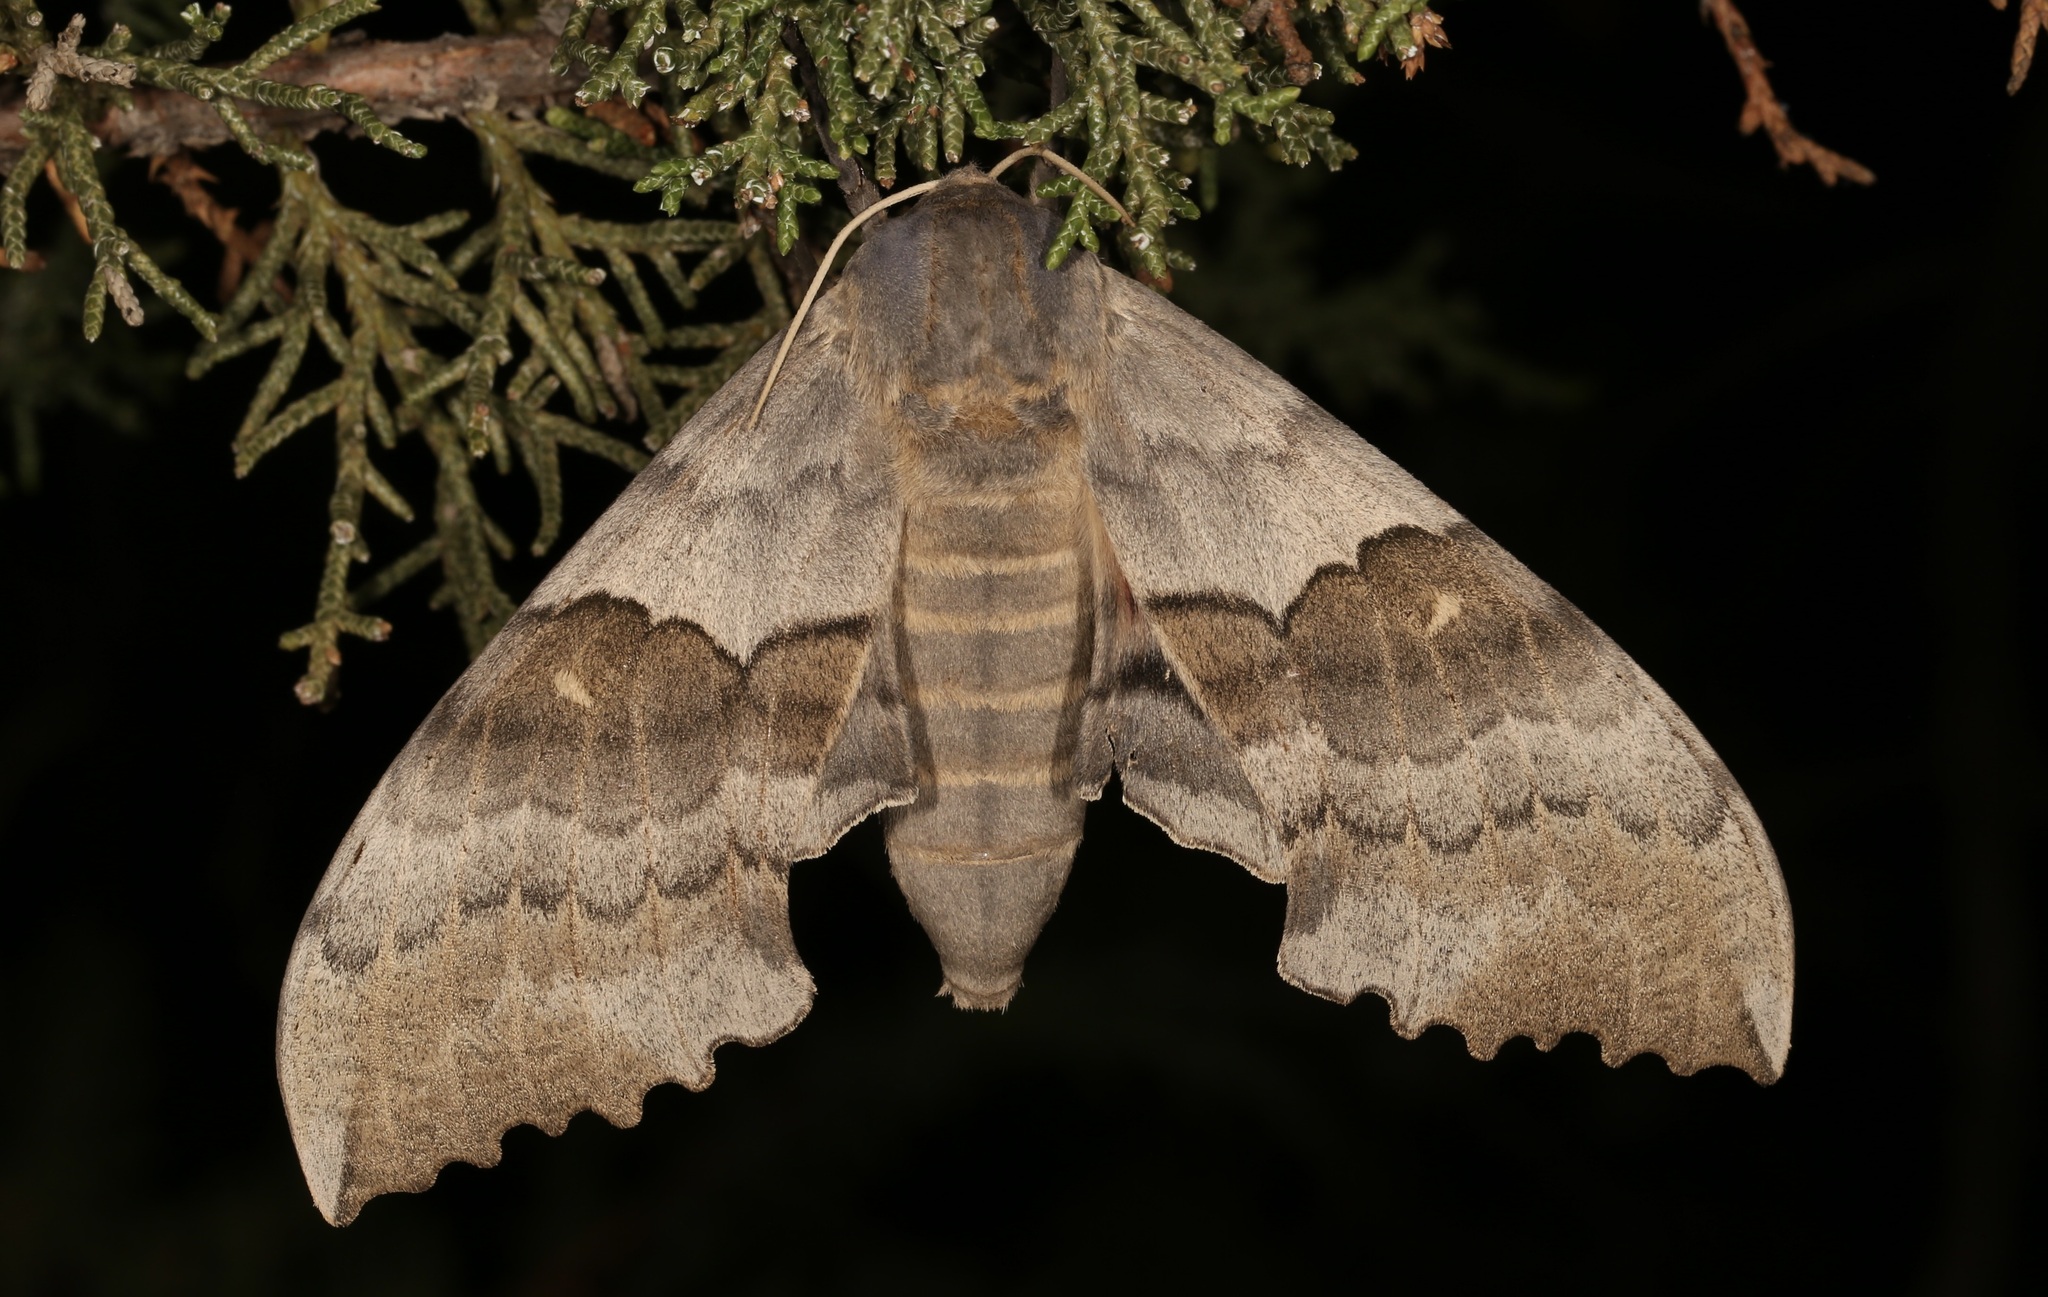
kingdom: Animalia
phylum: Arthropoda
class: Insecta
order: Lepidoptera
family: Sphingidae
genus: Pachysphinx
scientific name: Pachysphinx occidentalis
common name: Western poplar sphinx
